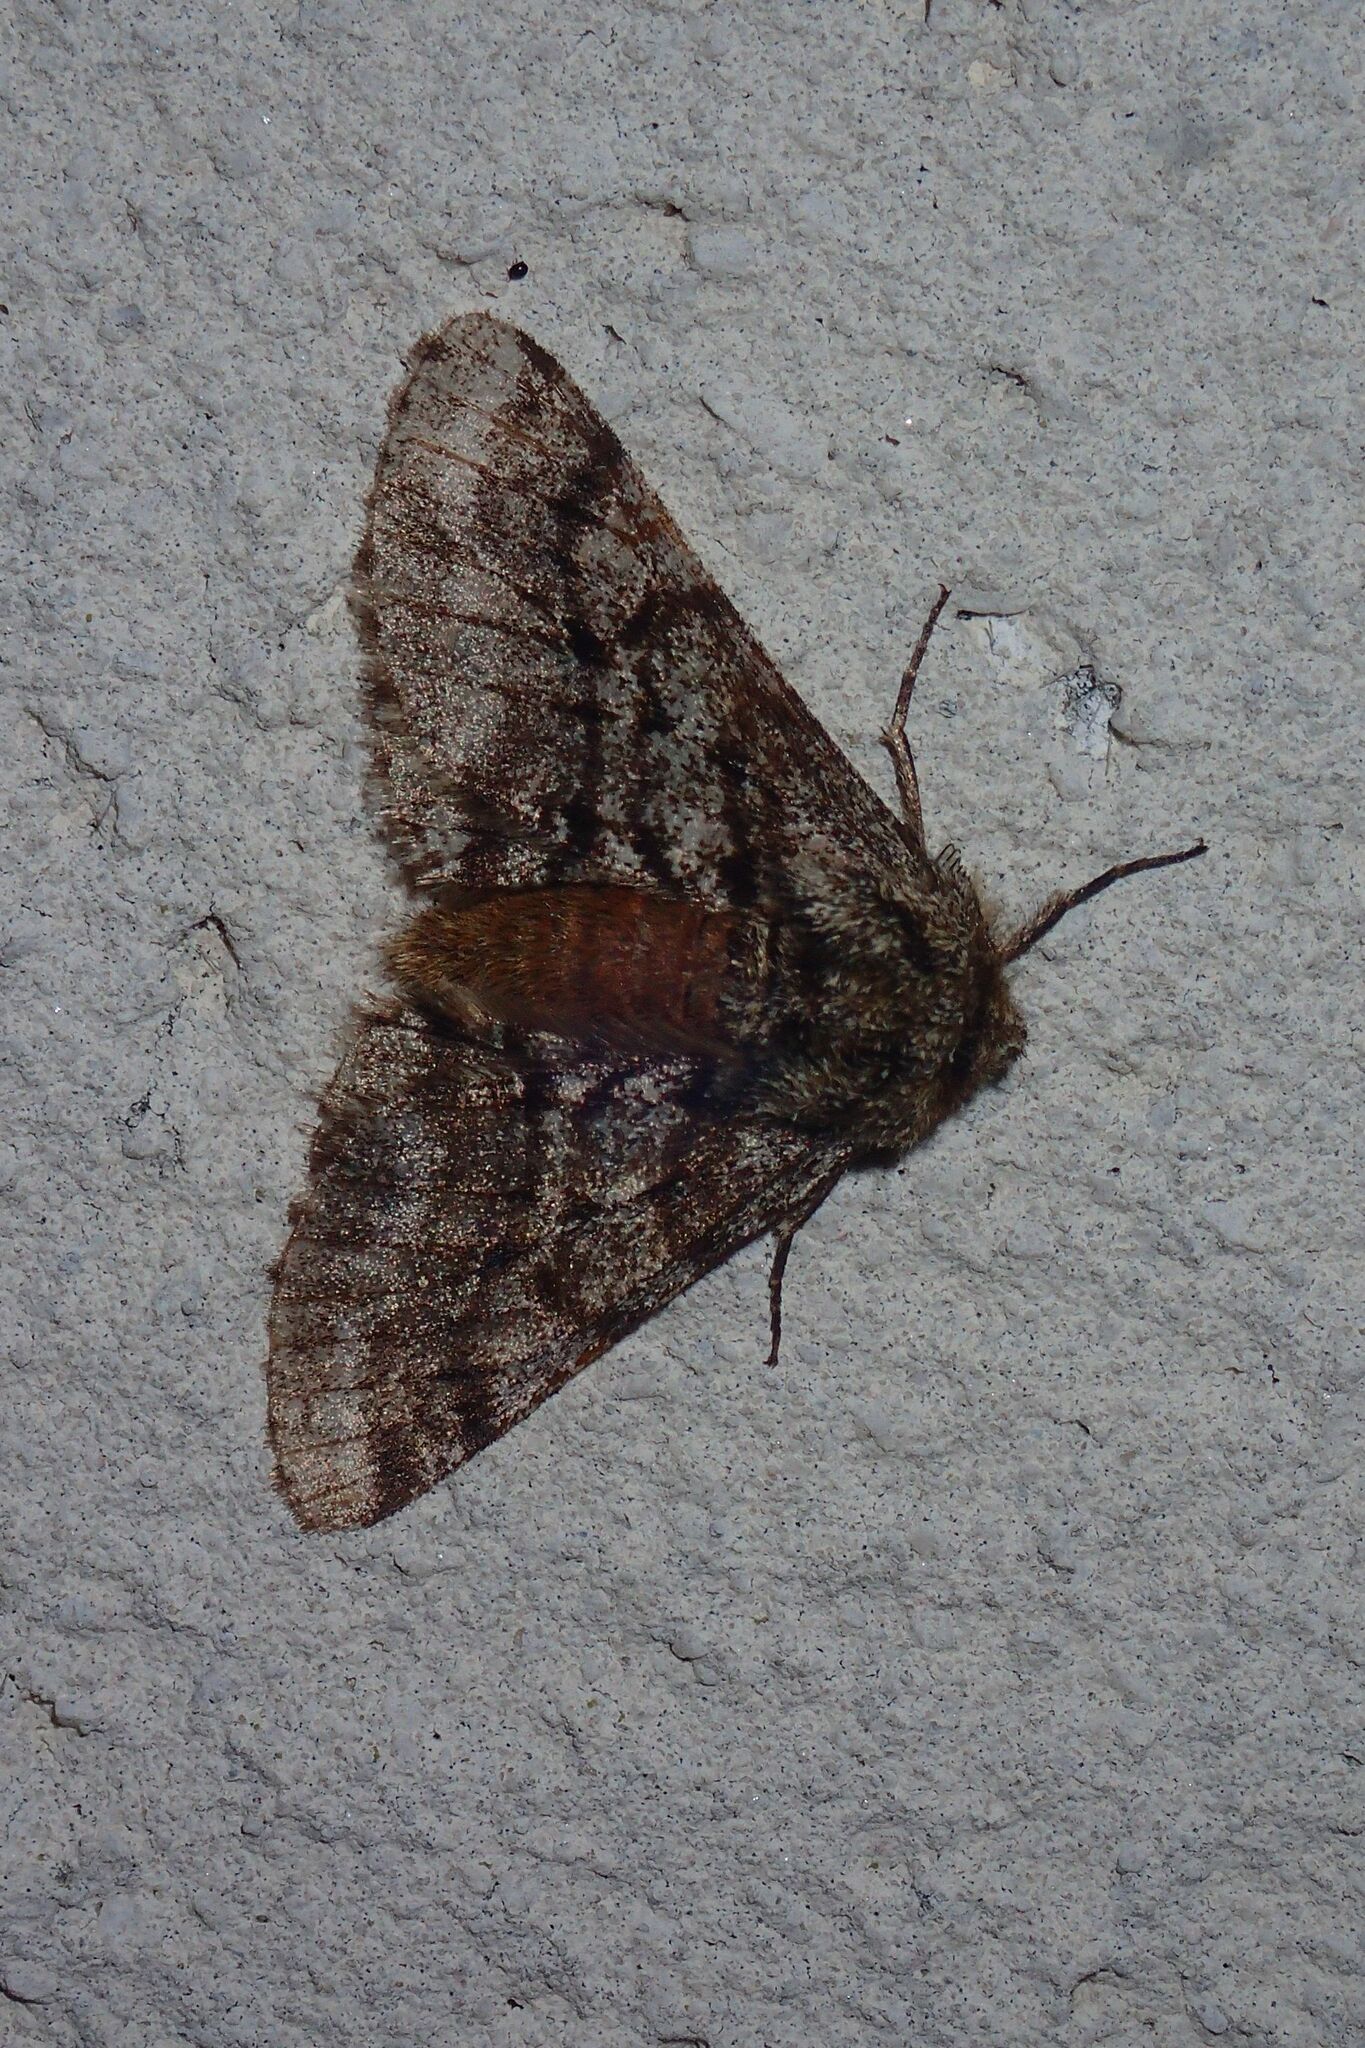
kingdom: Animalia
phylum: Arthropoda
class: Insecta
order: Lepidoptera
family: Geometridae
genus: Lycia
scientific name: Lycia hirtaria
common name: Brindled beauty
